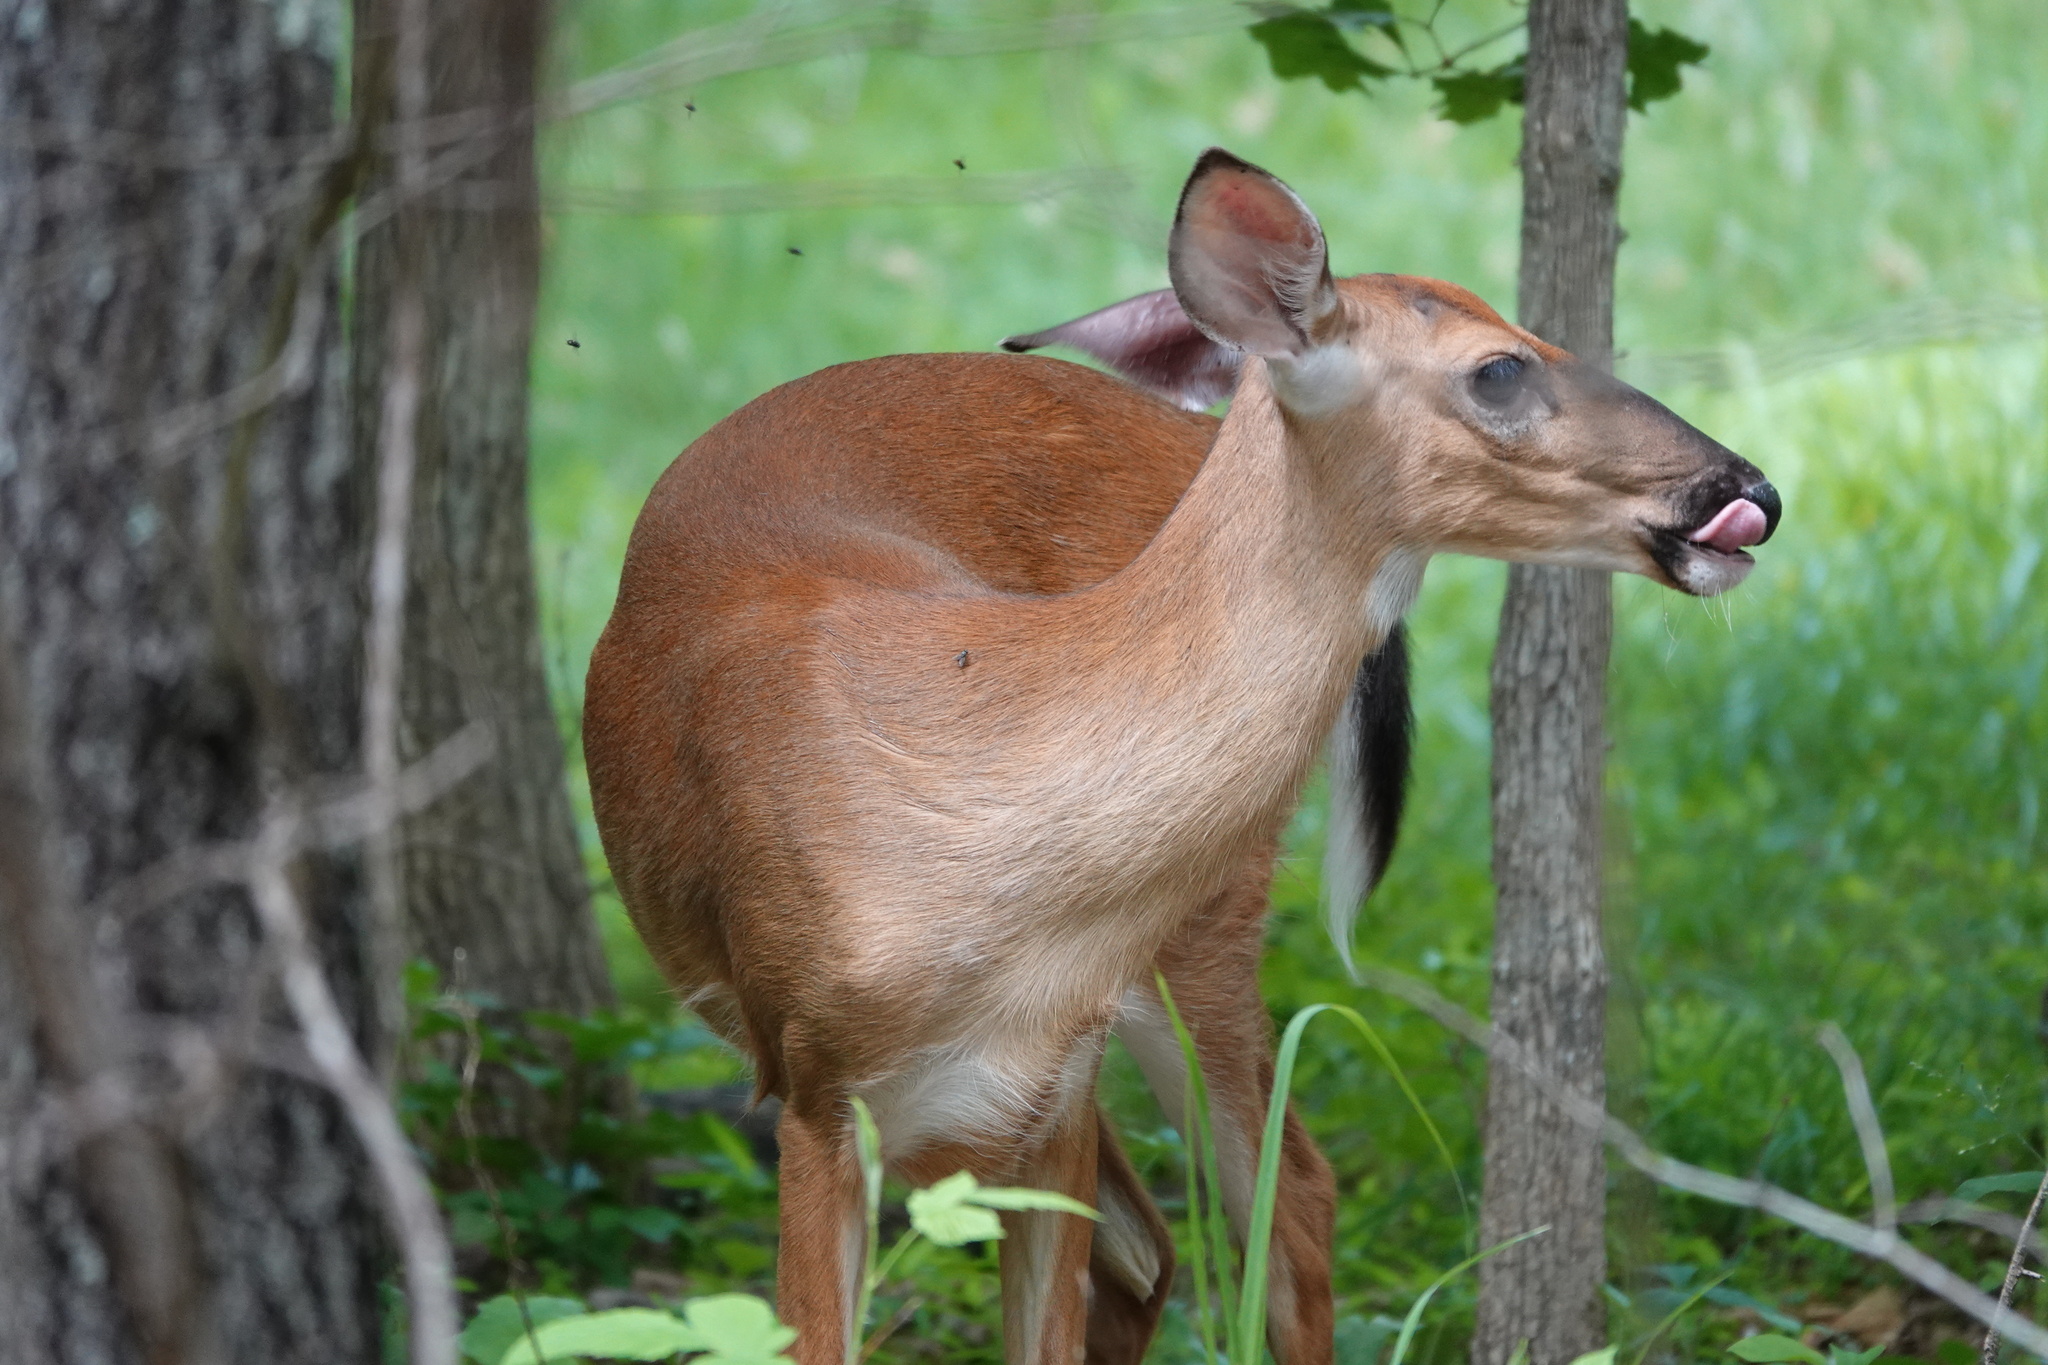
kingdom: Animalia
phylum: Chordata
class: Mammalia
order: Artiodactyla
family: Cervidae
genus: Odocoileus
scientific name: Odocoileus virginianus
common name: White-tailed deer
